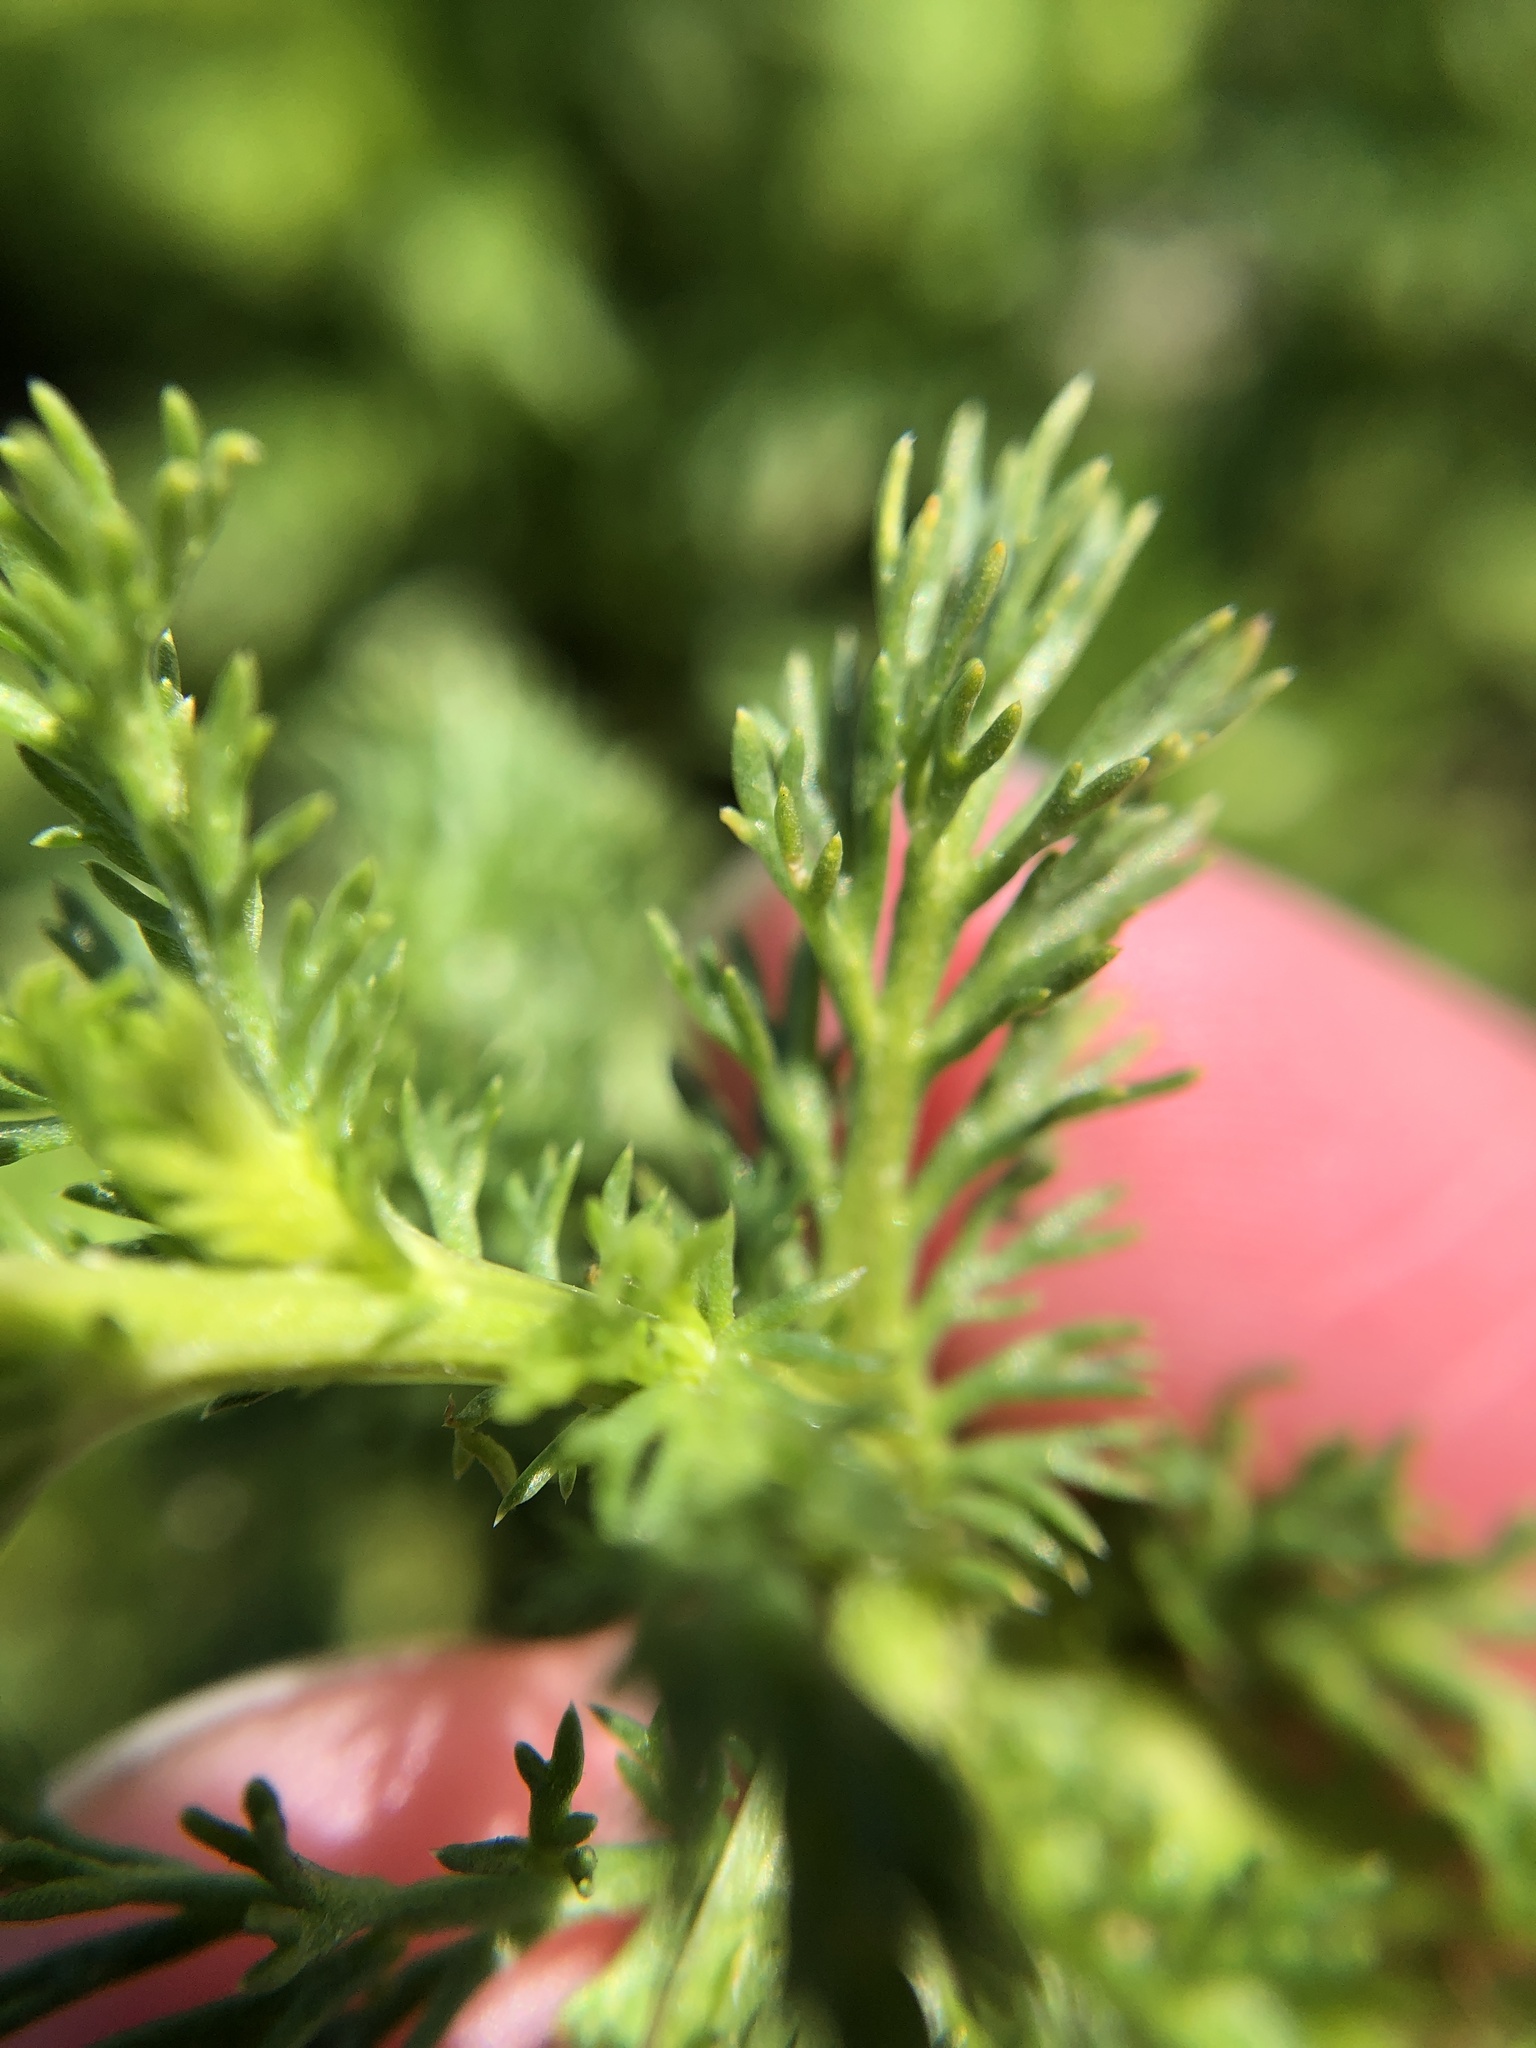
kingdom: Plantae
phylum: Tracheophyta
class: Magnoliopsida
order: Asterales
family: Asteraceae
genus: Matricaria
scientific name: Matricaria discoidea
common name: Disc mayweed
